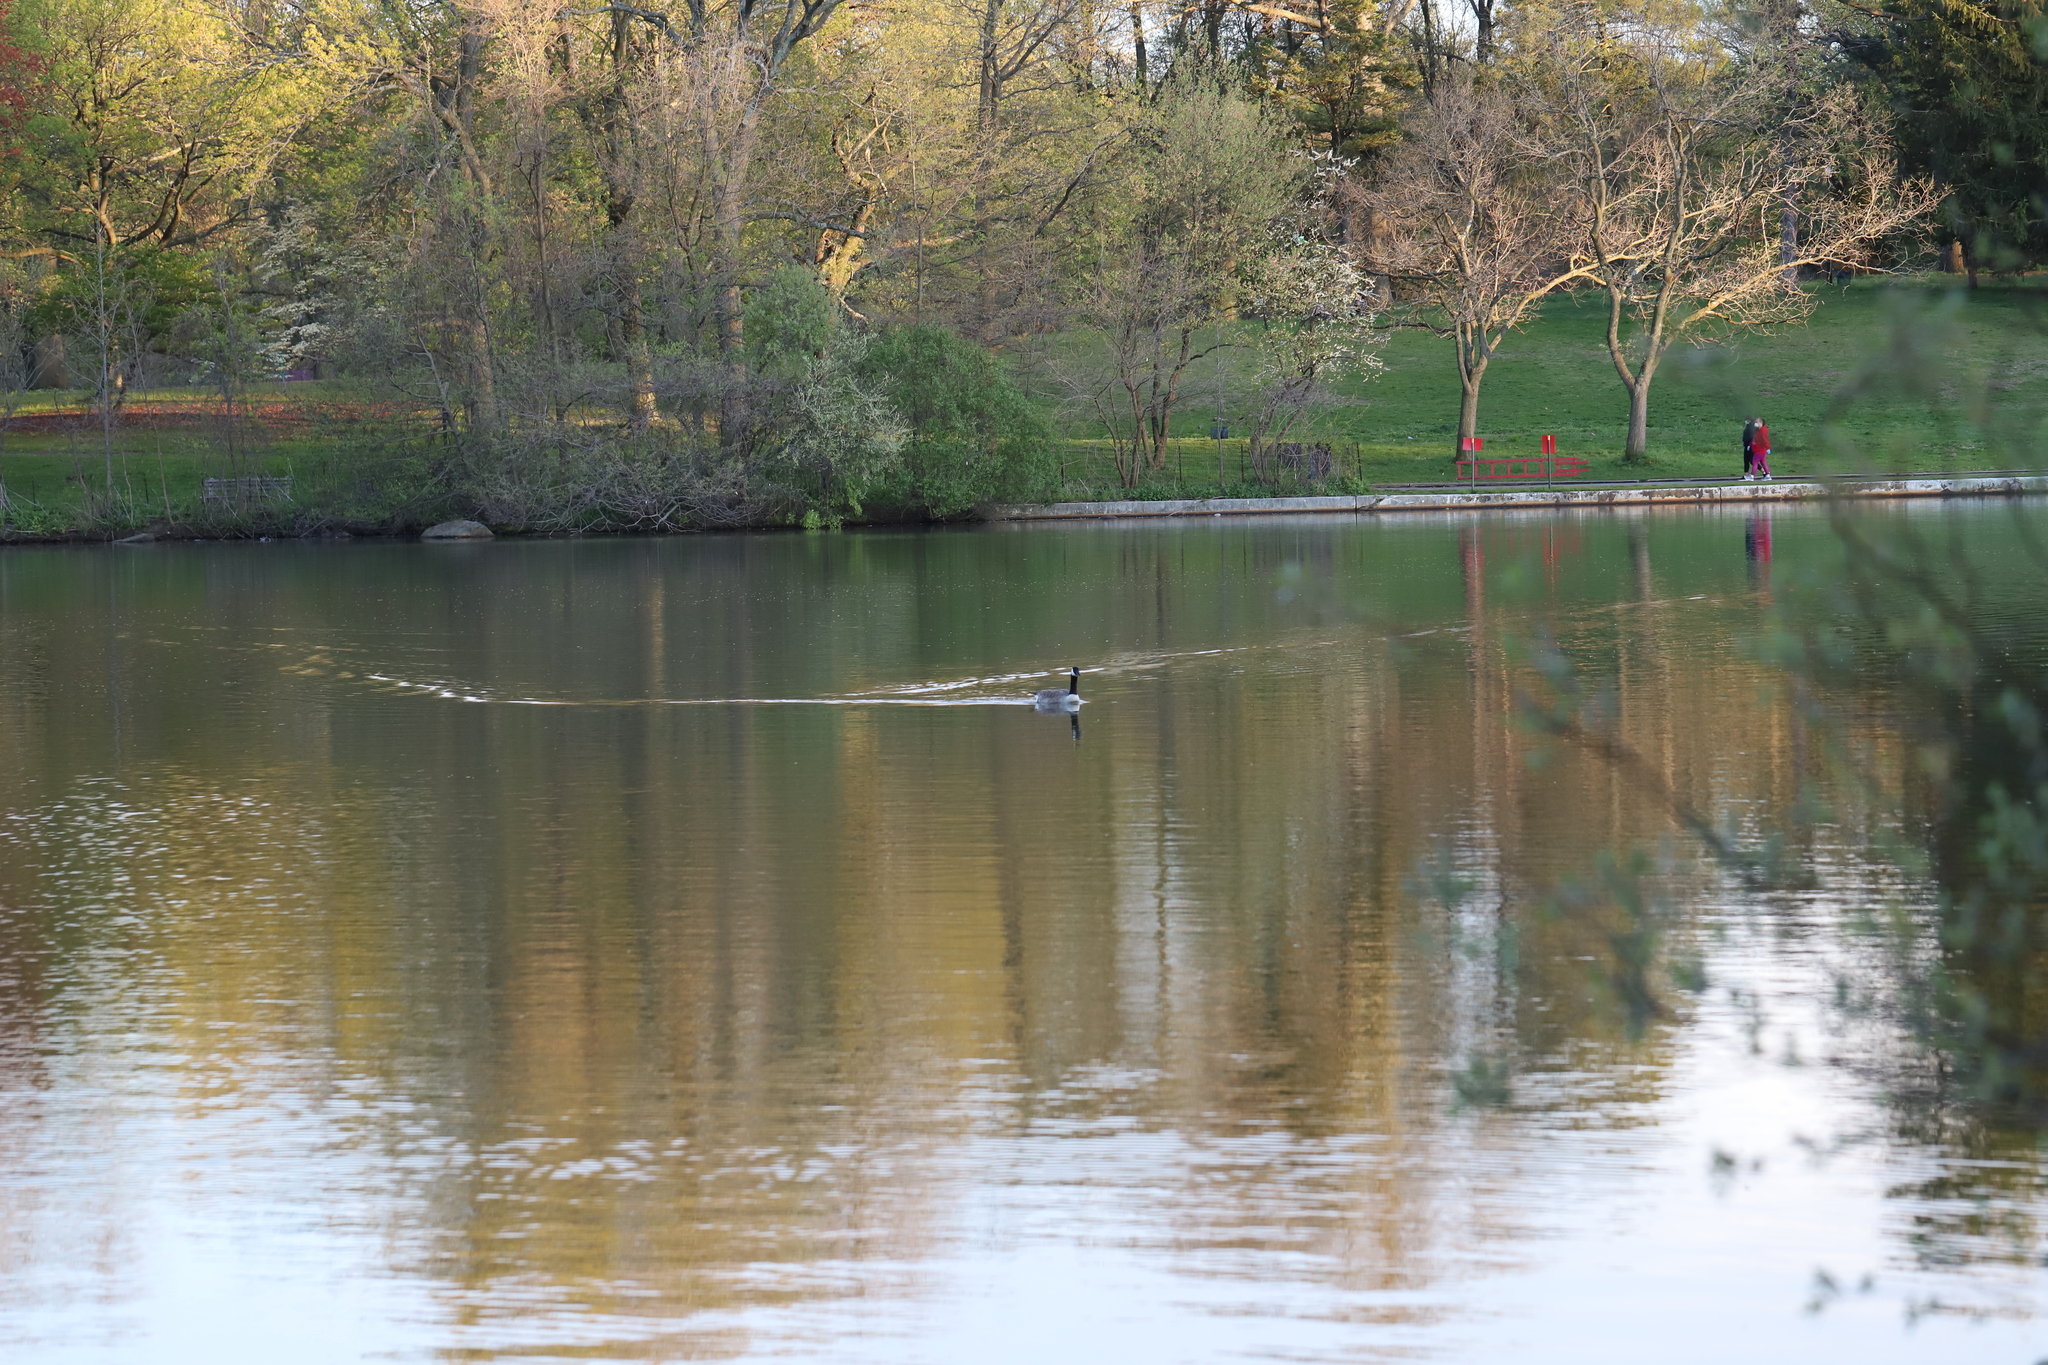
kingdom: Animalia
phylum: Chordata
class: Aves
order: Anseriformes
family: Anatidae
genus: Branta
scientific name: Branta canadensis
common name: Canada goose
